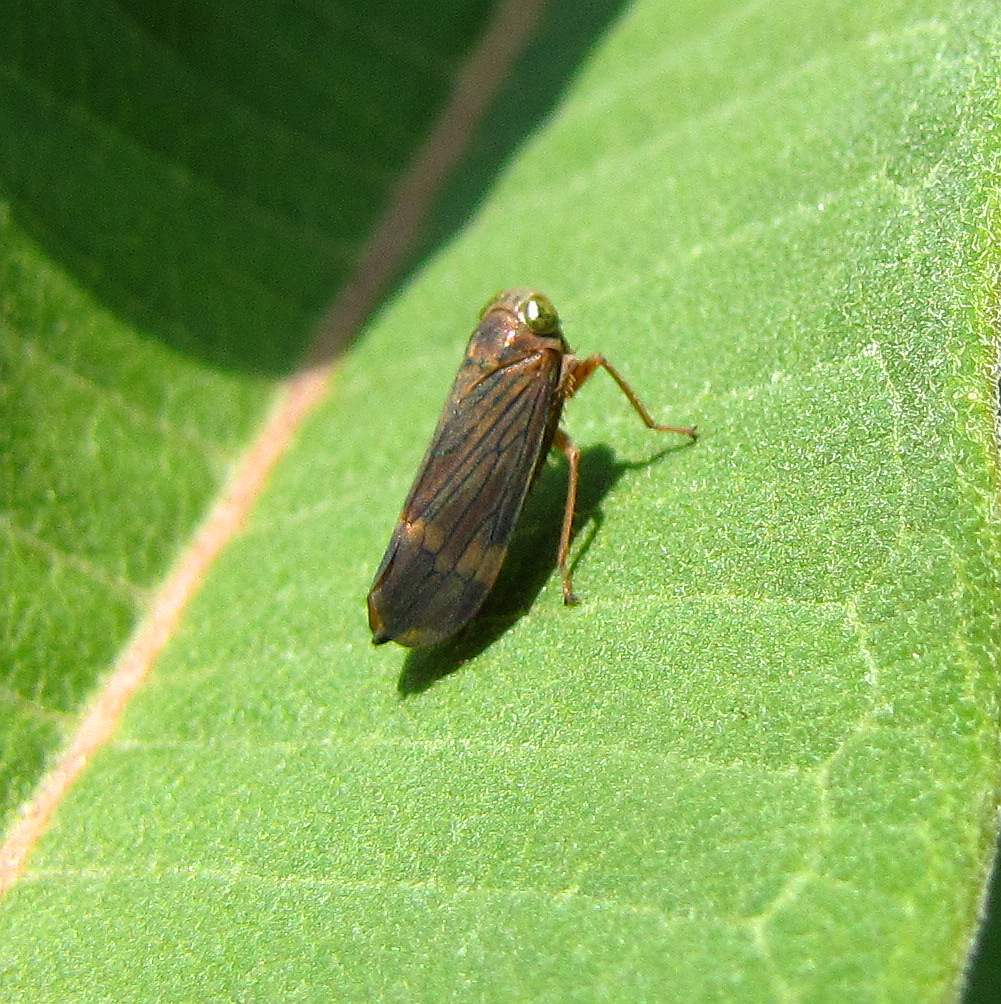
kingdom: Animalia
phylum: Arthropoda
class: Insecta
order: Hemiptera
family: Cicadellidae
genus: Jikradia
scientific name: Jikradia olitoria
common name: Coppery leafhopper
